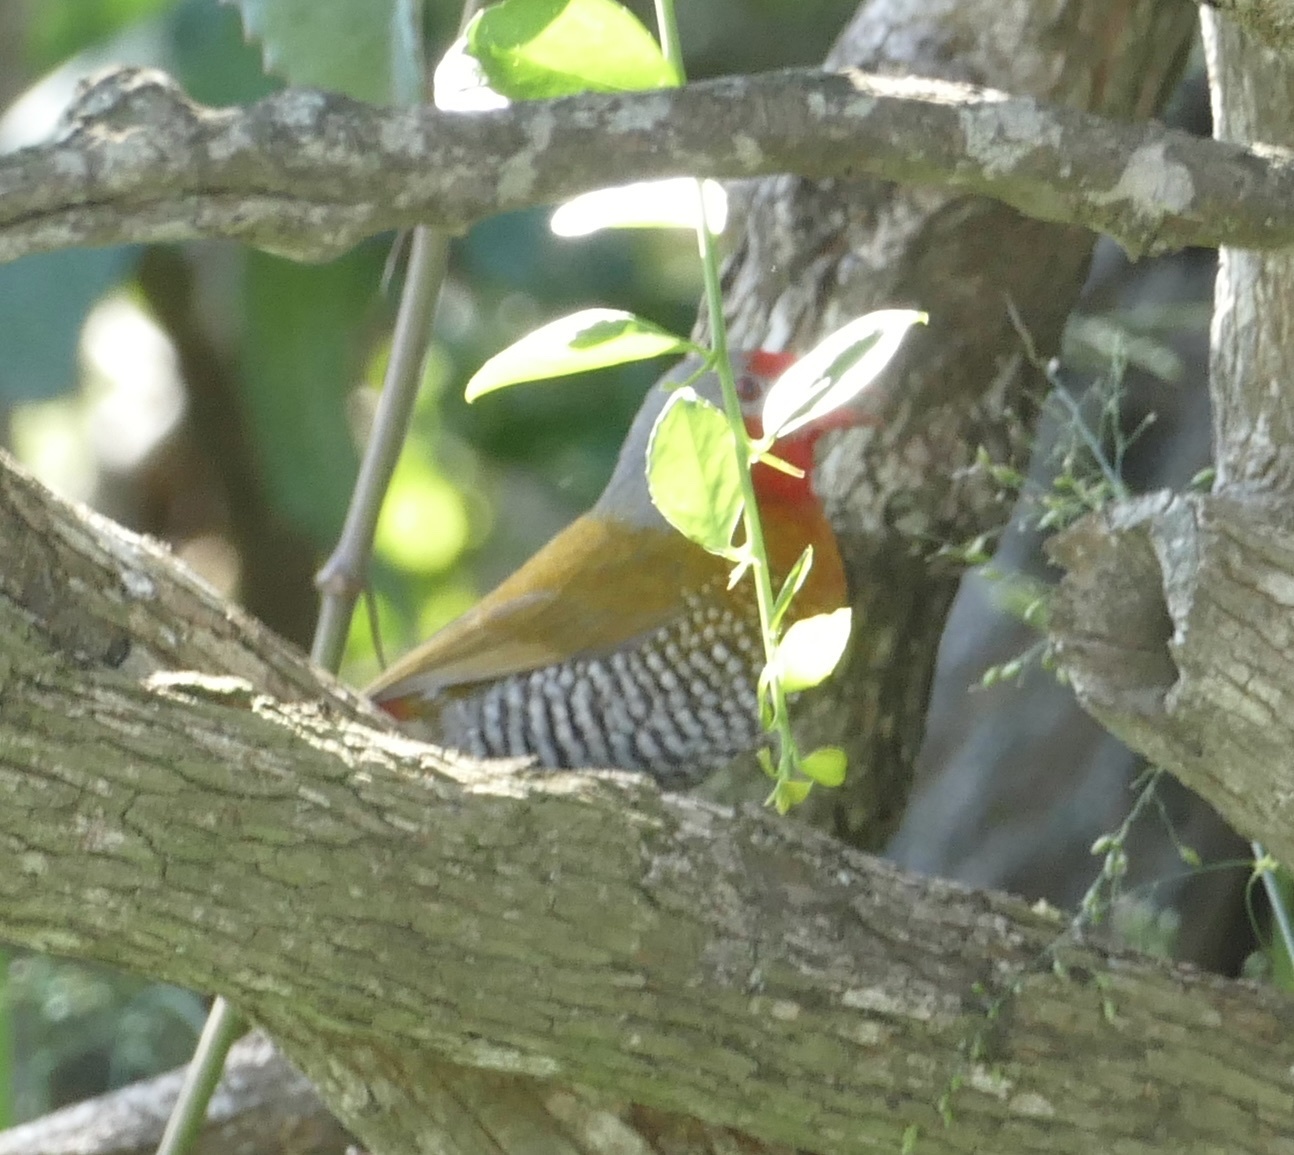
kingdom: Animalia
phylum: Chordata
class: Aves
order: Passeriformes
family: Estrildidae
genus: Pytilia
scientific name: Pytilia melba
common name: Green-winged pytilia
